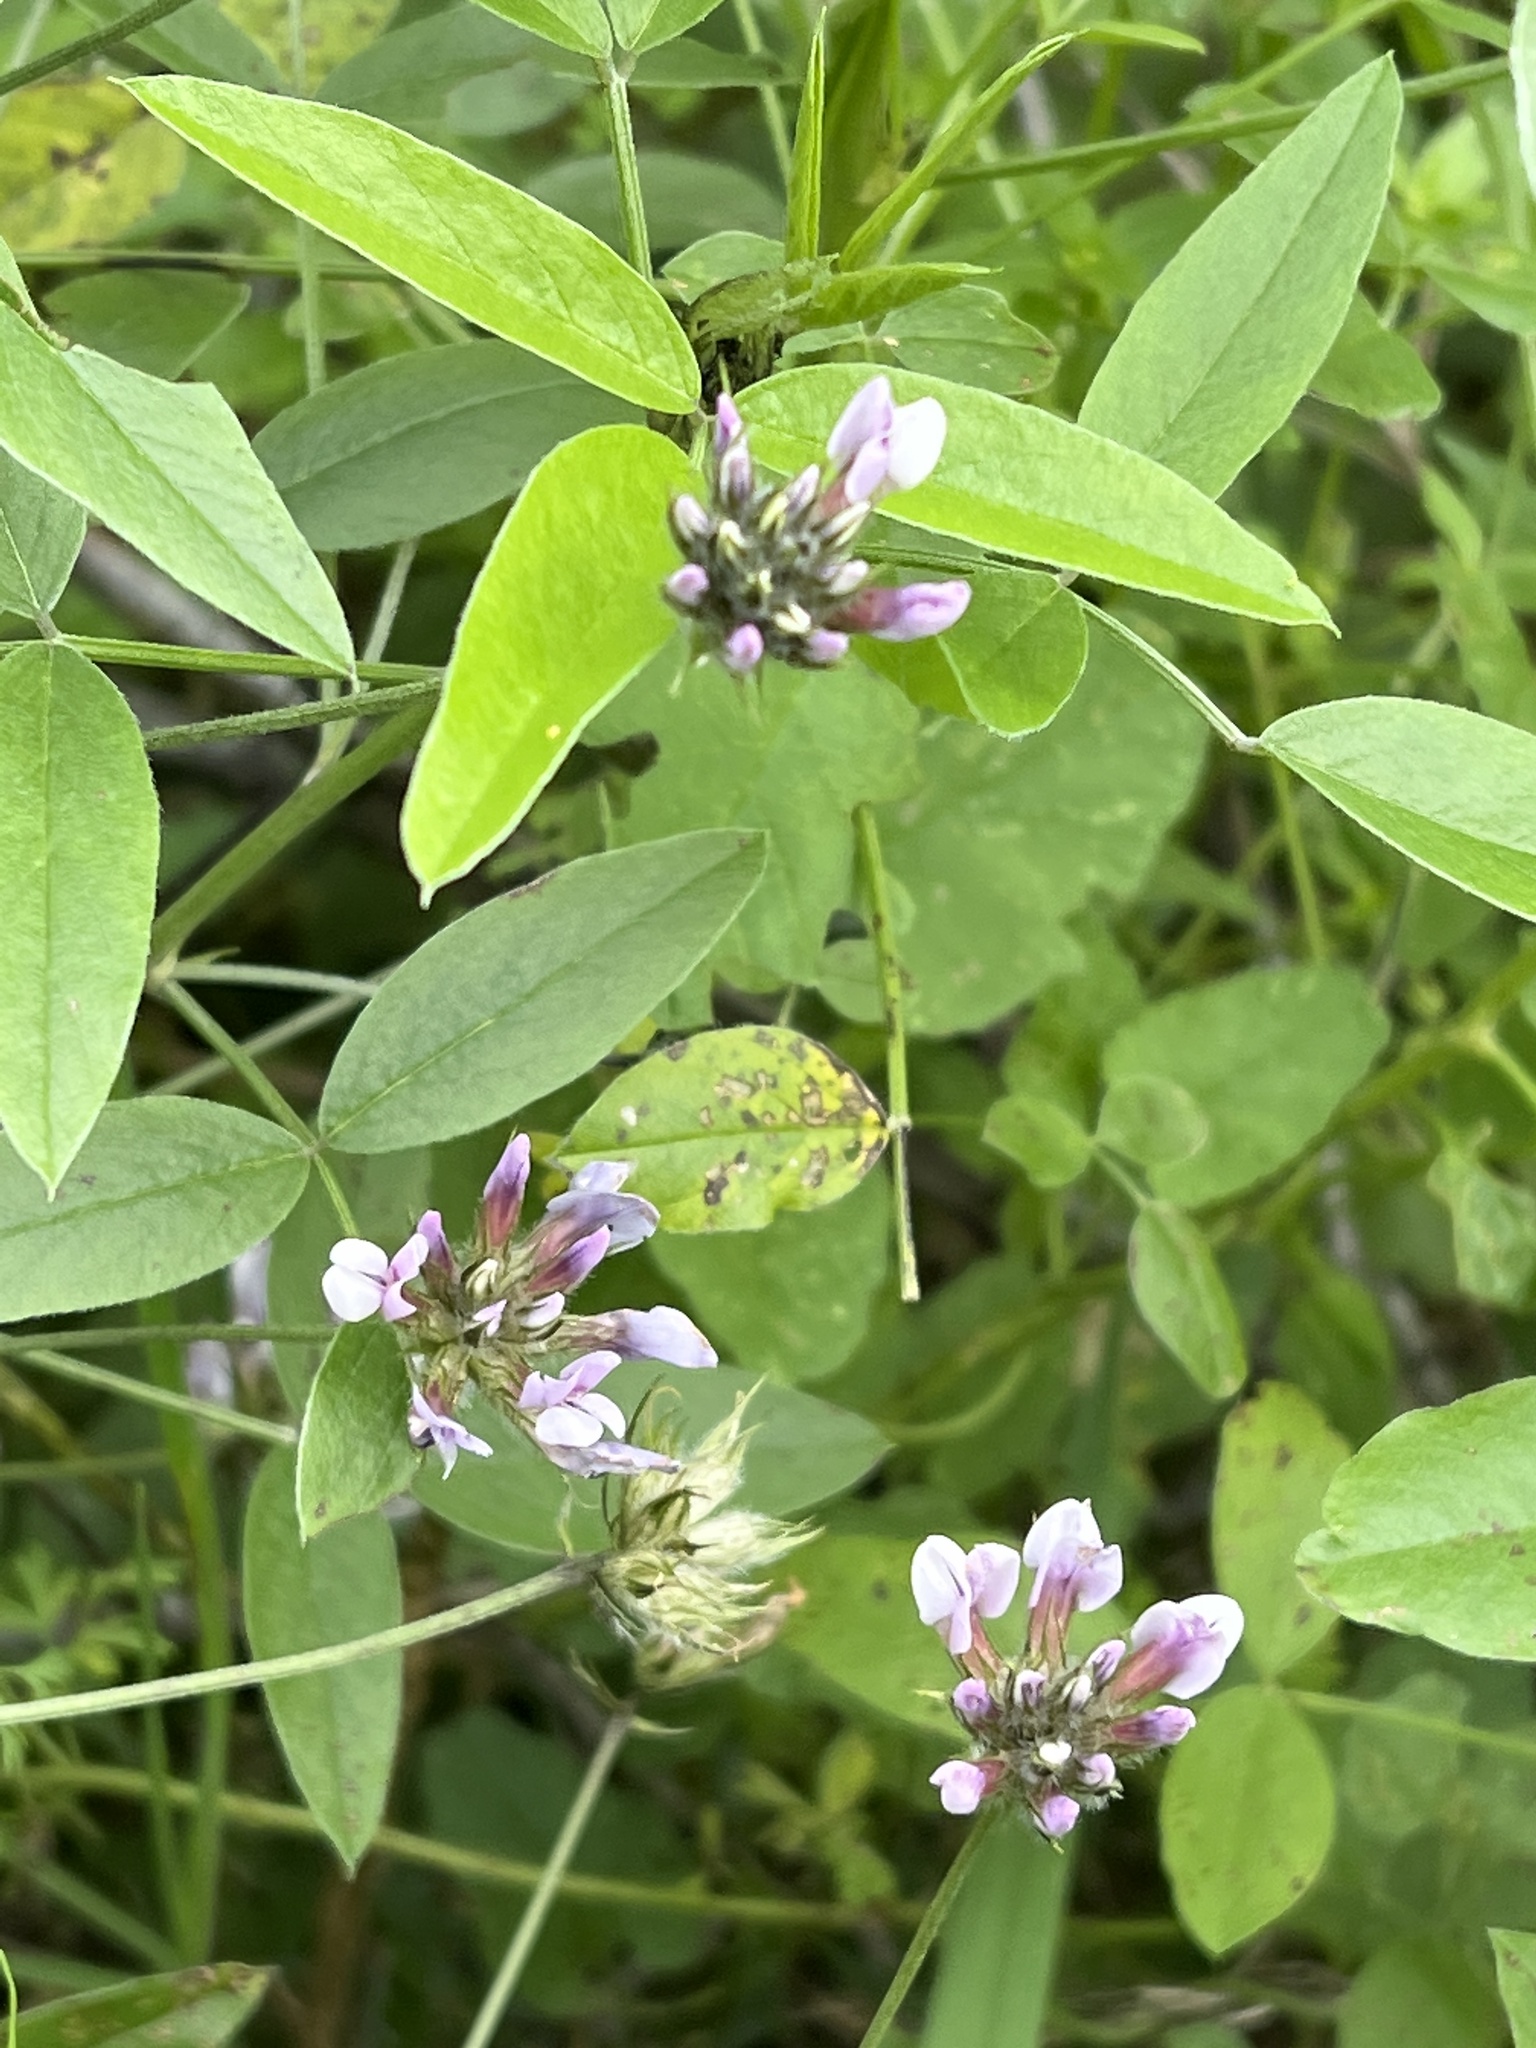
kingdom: Plantae
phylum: Tracheophyta
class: Magnoliopsida
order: Fabales
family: Fabaceae
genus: Bituminaria
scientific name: Bituminaria bituminosa
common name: Arabian pea
